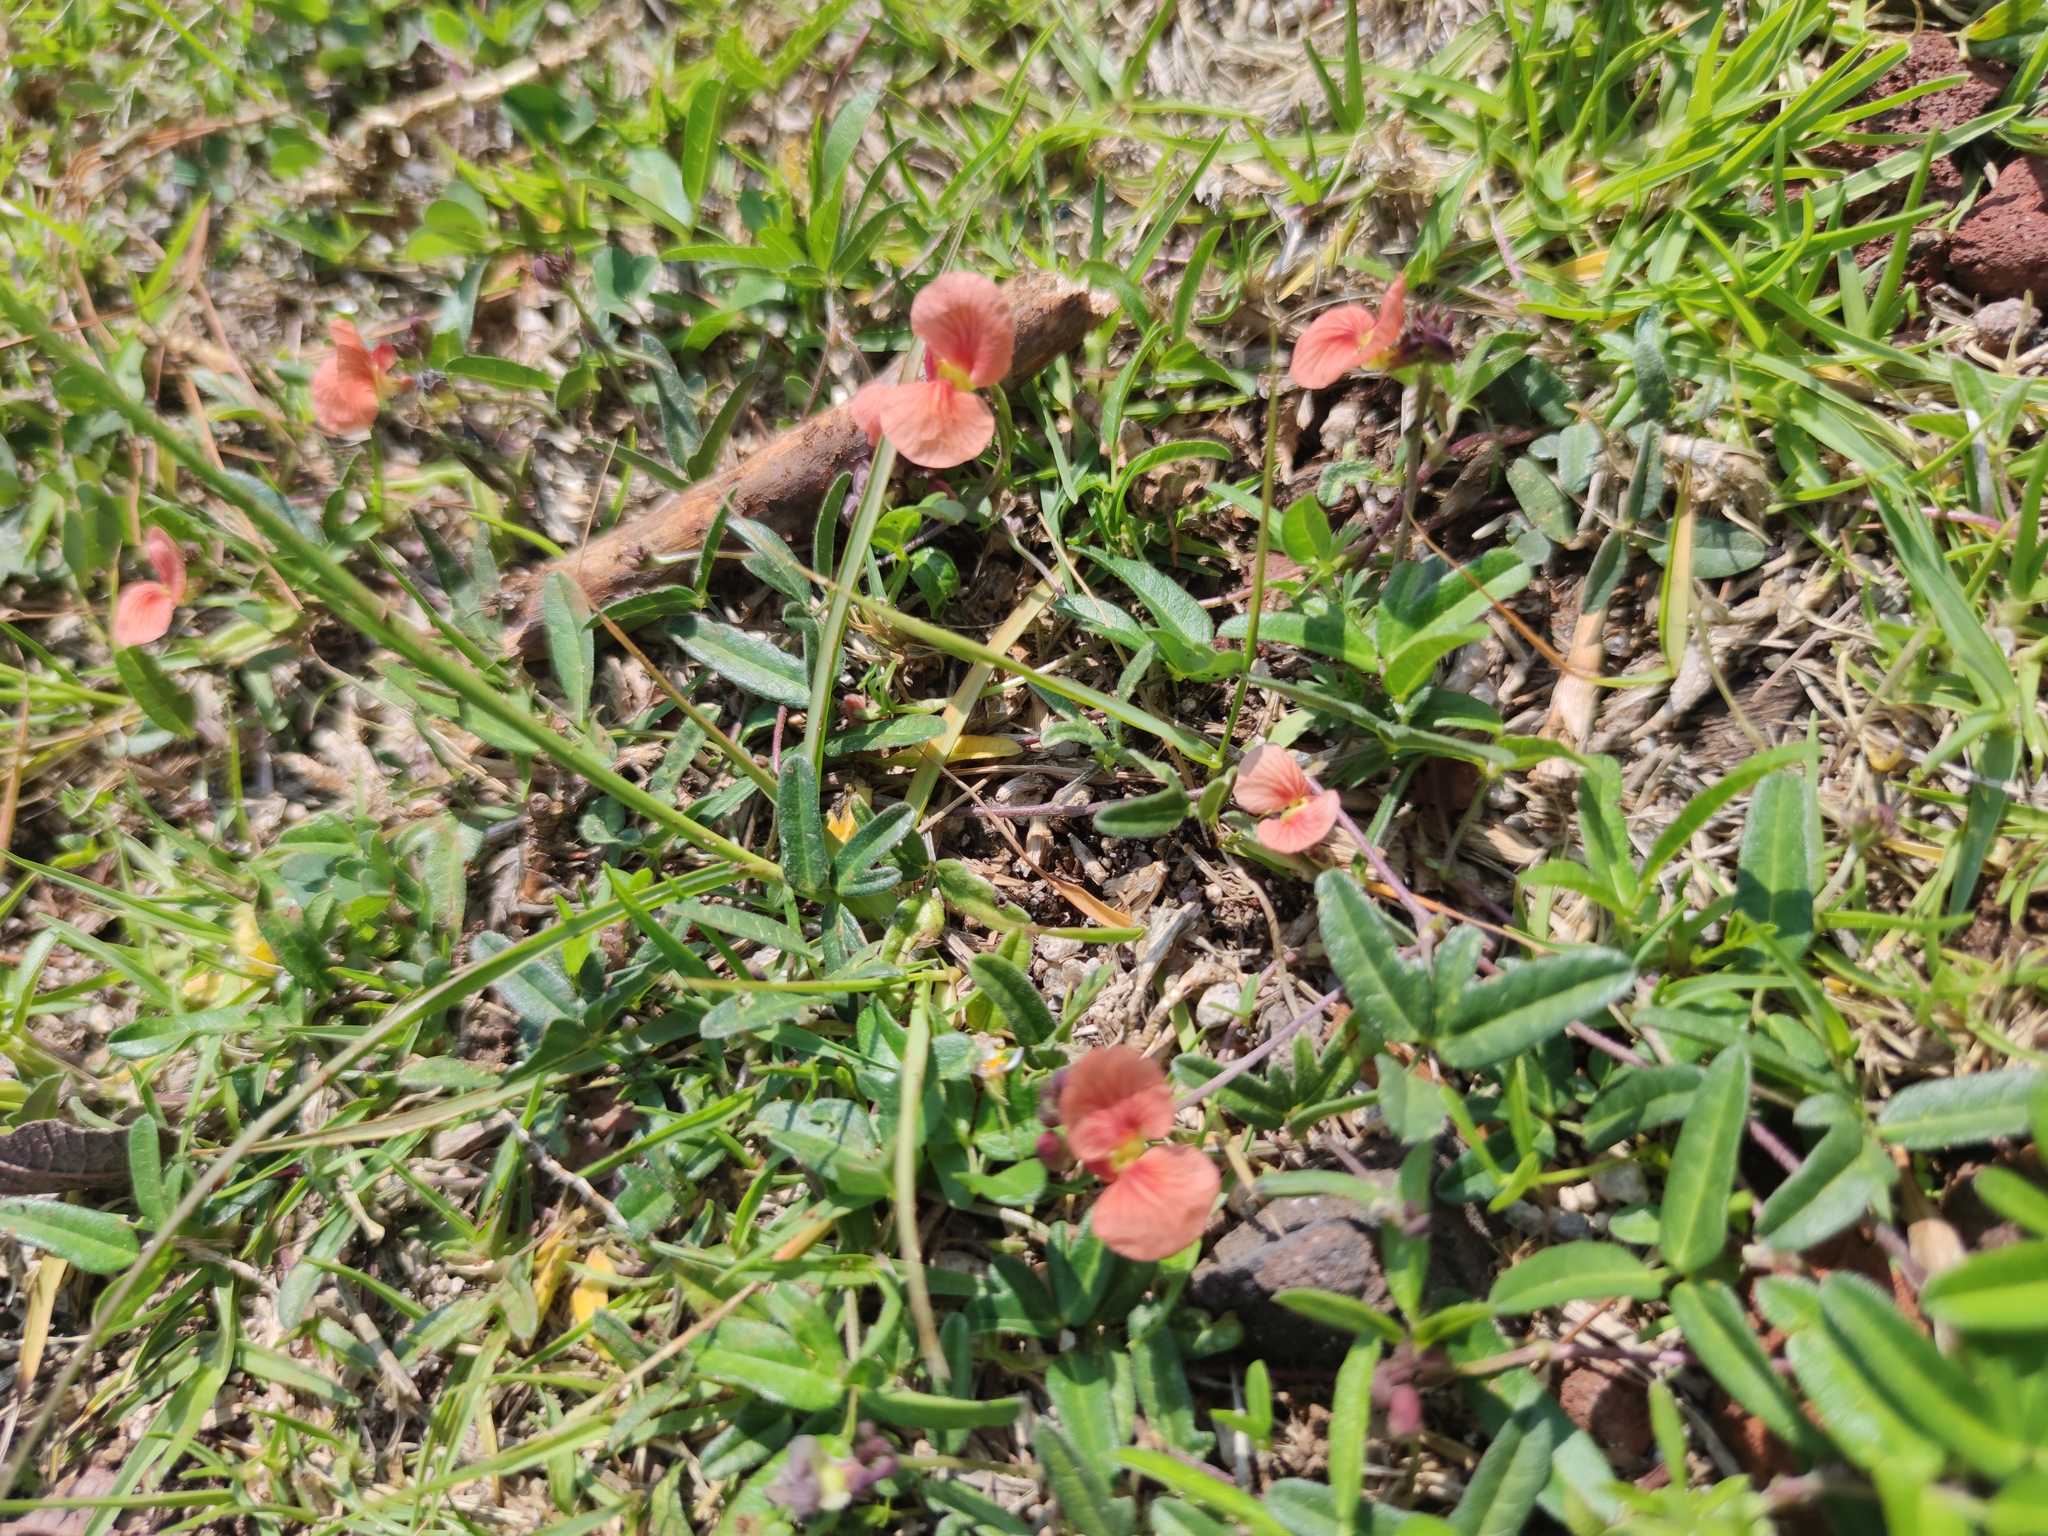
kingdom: Plantae
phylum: Tracheophyta
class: Magnoliopsida
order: Fabales
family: Fabaceae
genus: Macroptilium
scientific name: Macroptilium gibbosifolium
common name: Variableleaf bushbean
